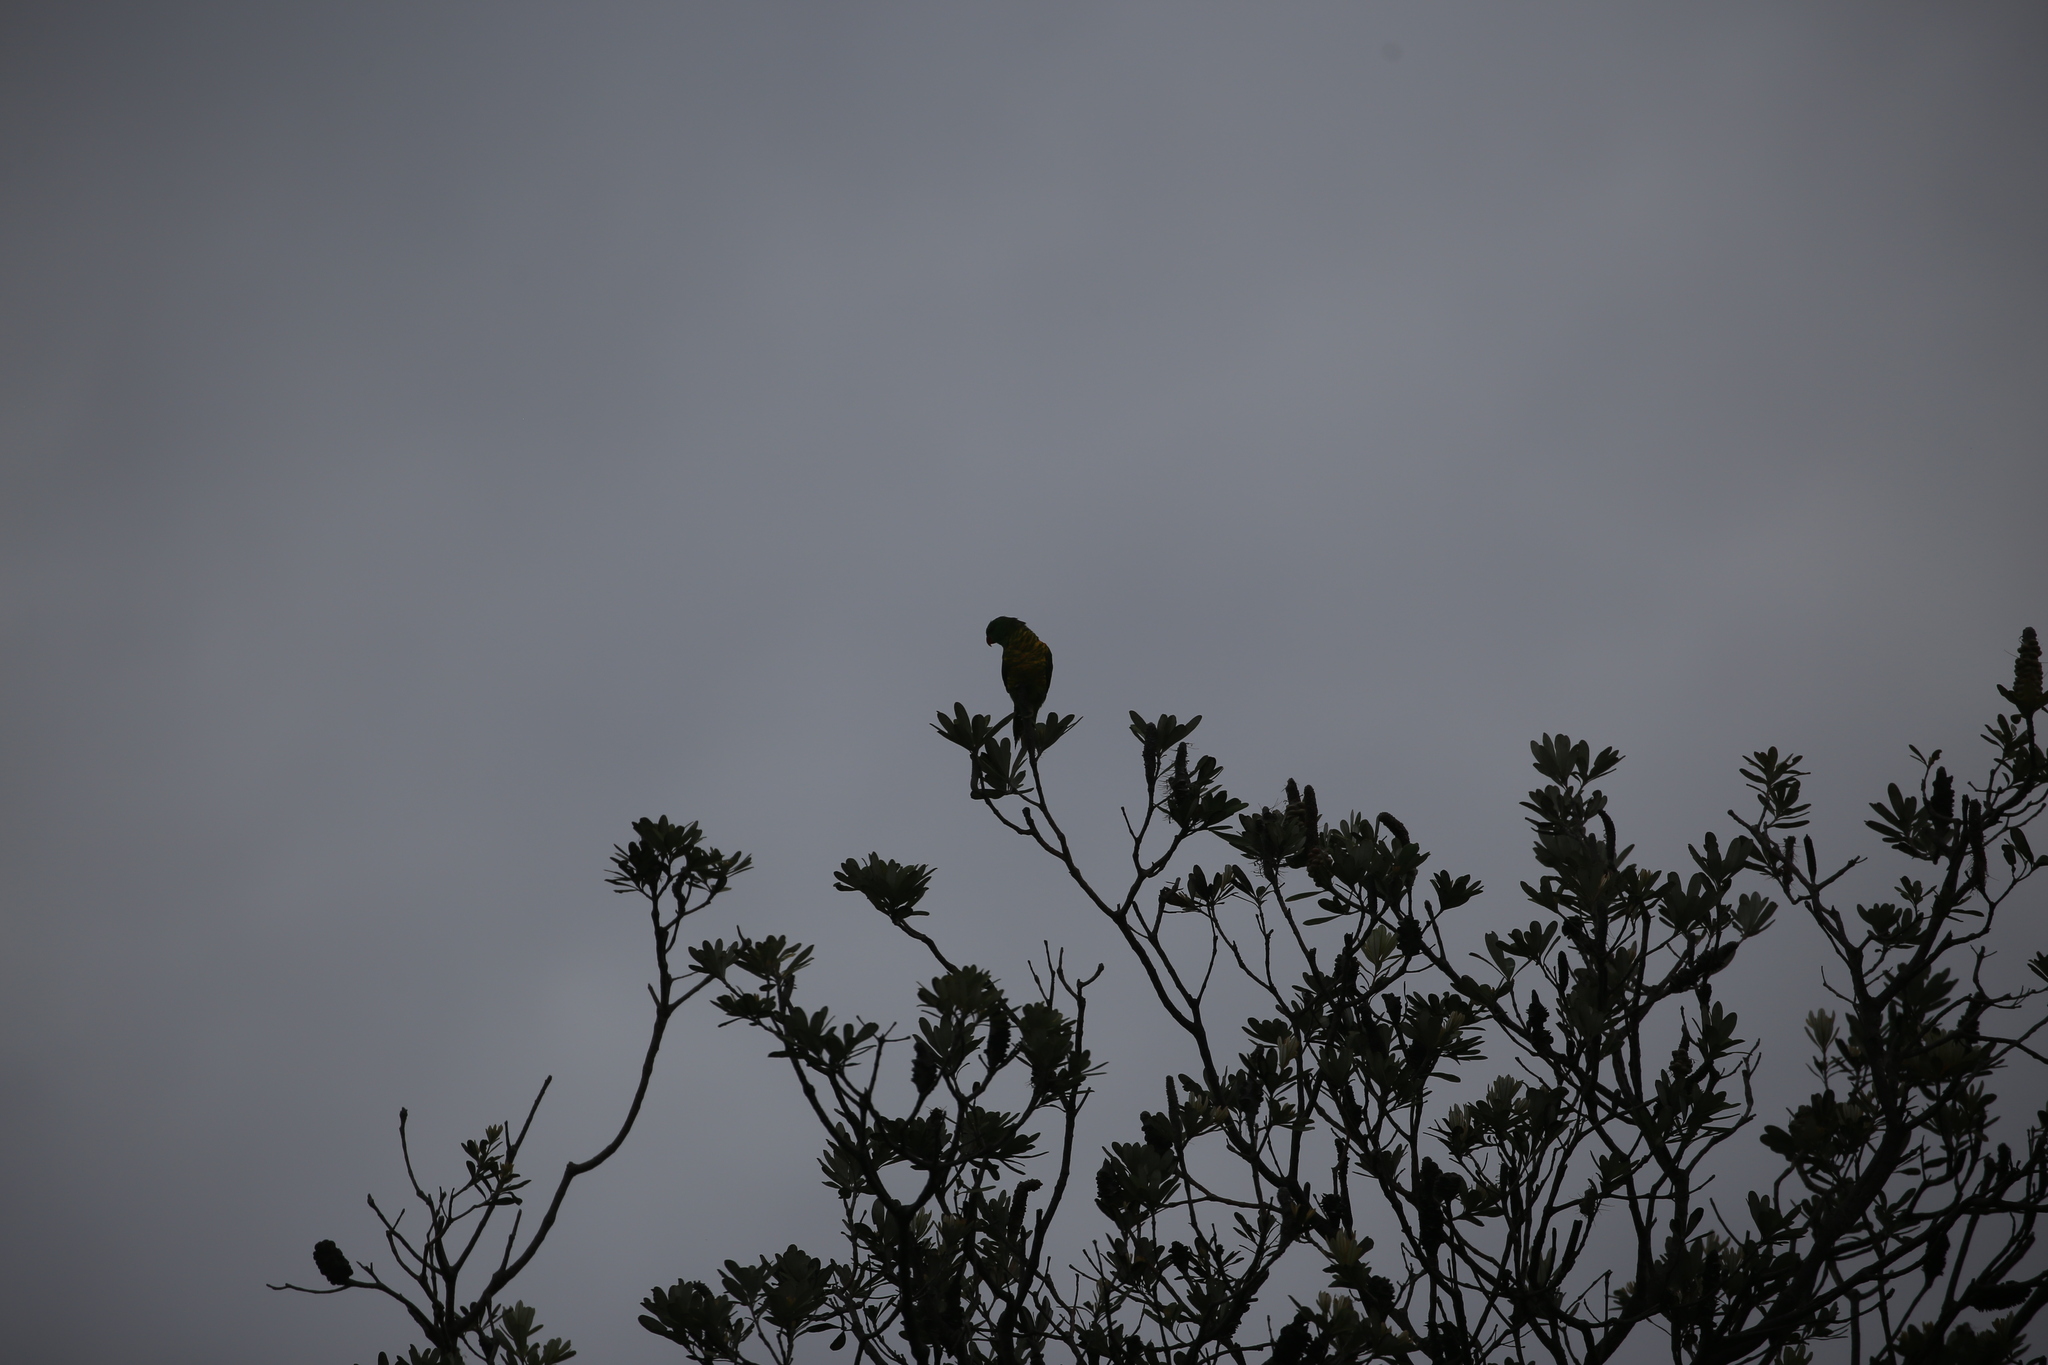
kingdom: Animalia
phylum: Chordata
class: Aves
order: Psittaciformes
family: Psittacidae
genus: Trichoglossus
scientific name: Trichoglossus chlorolepidotus
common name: Scaly-breasted lorikeet
